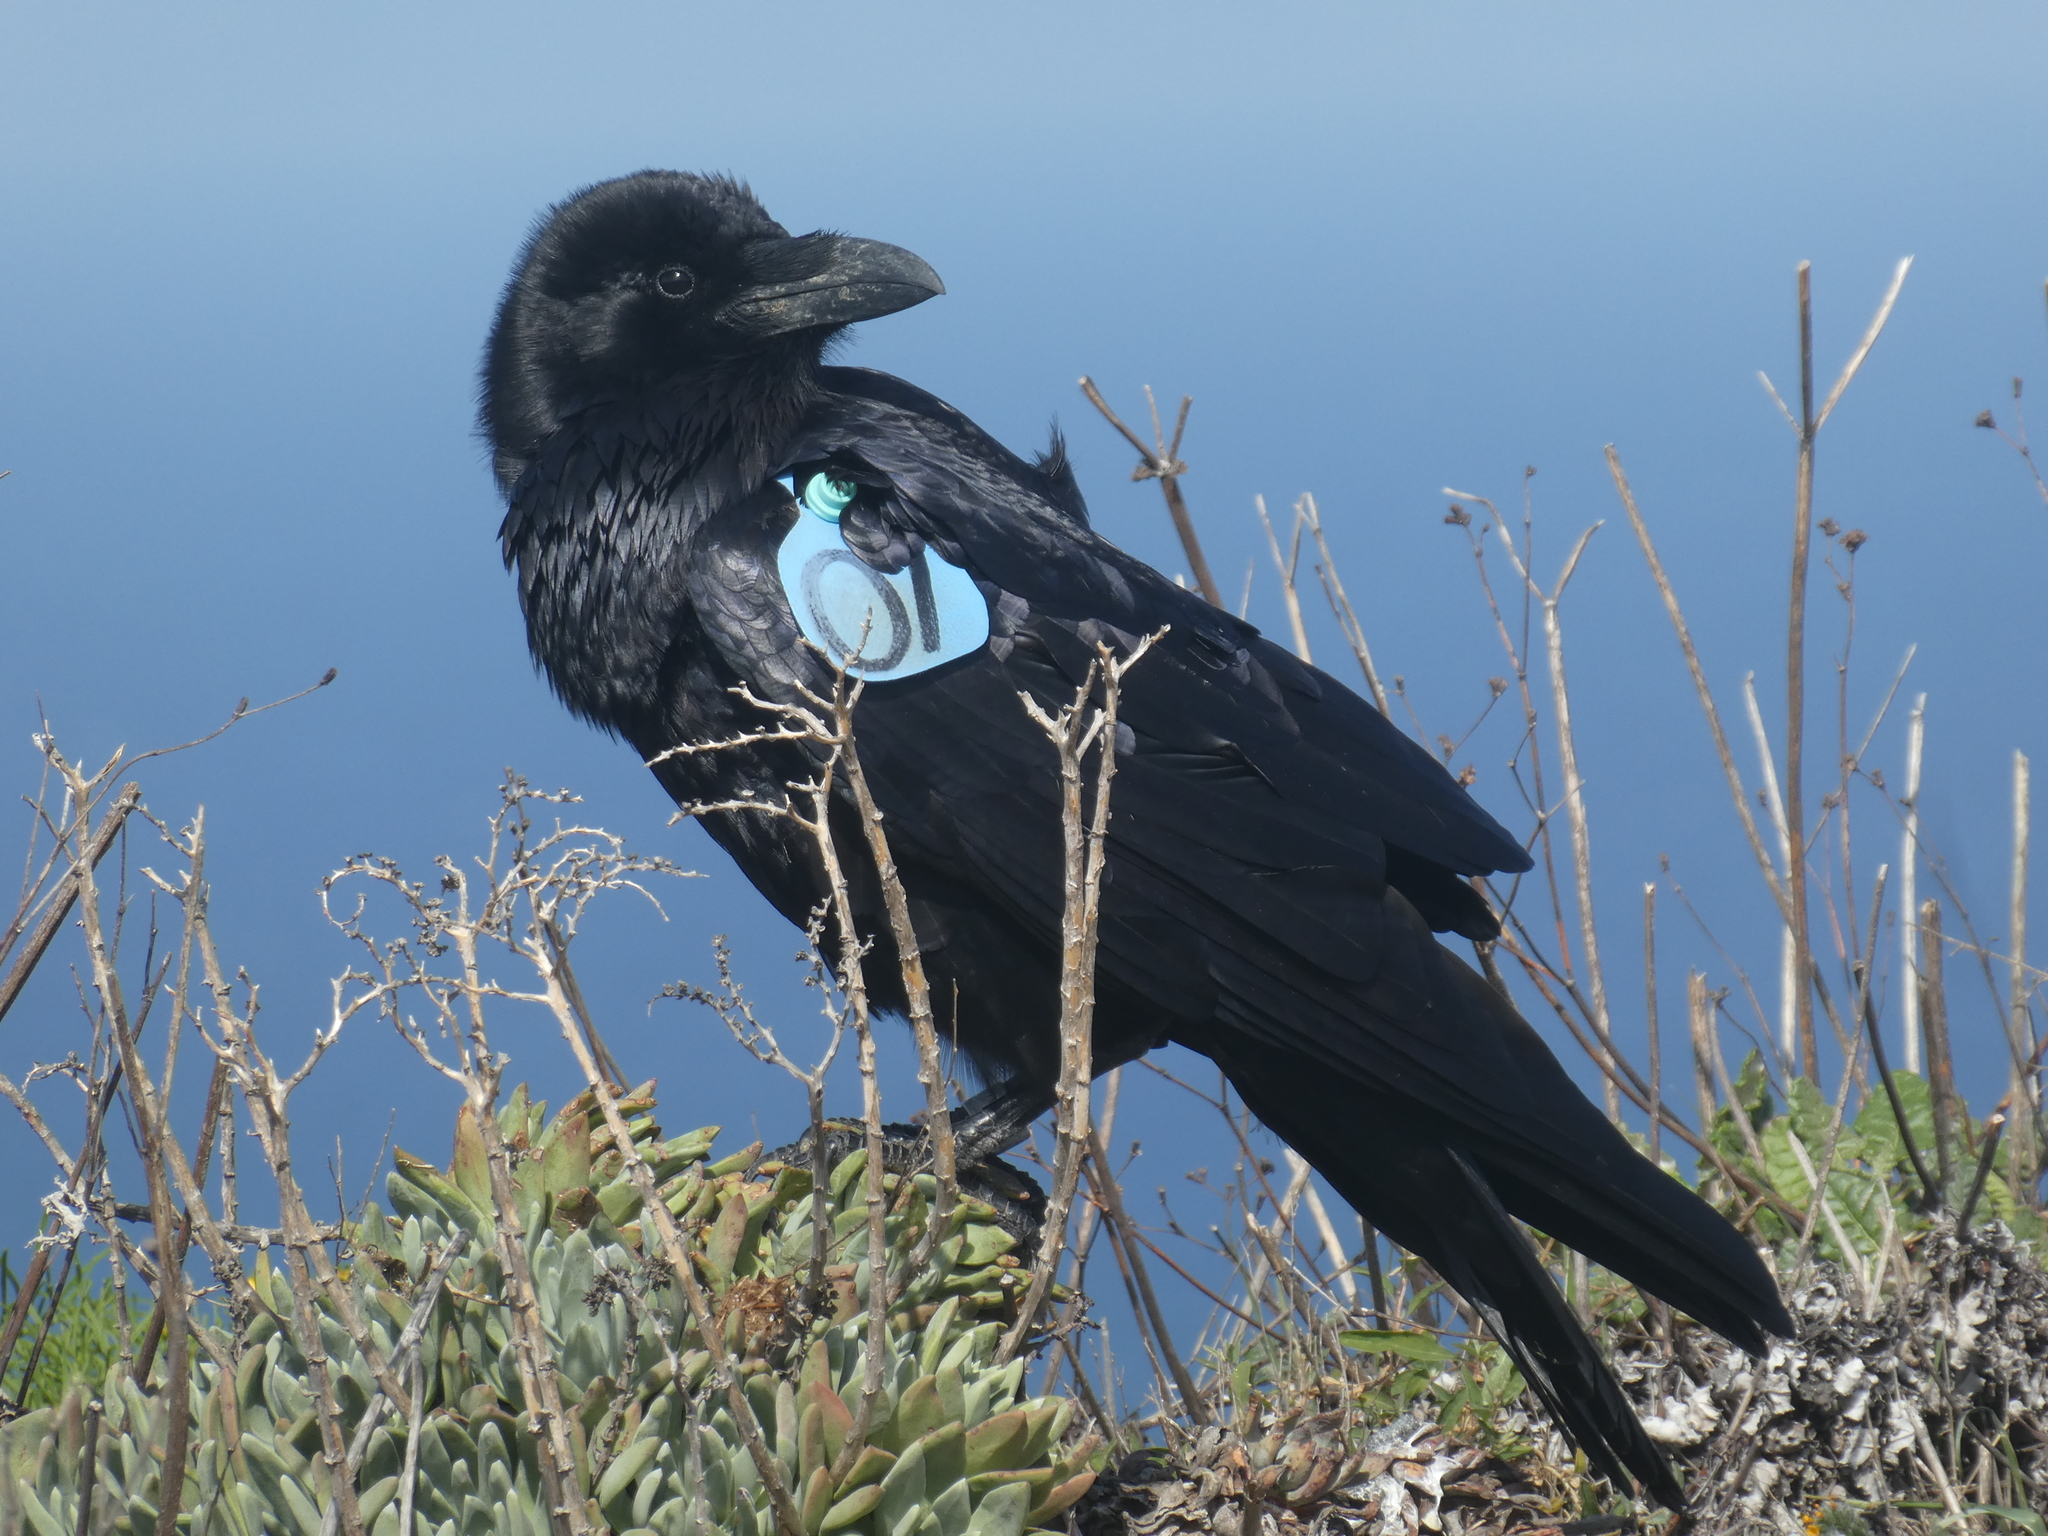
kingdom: Animalia
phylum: Chordata
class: Aves
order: Passeriformes
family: Corvidae
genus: Corvus
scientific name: Corvus corax
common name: Common raven
